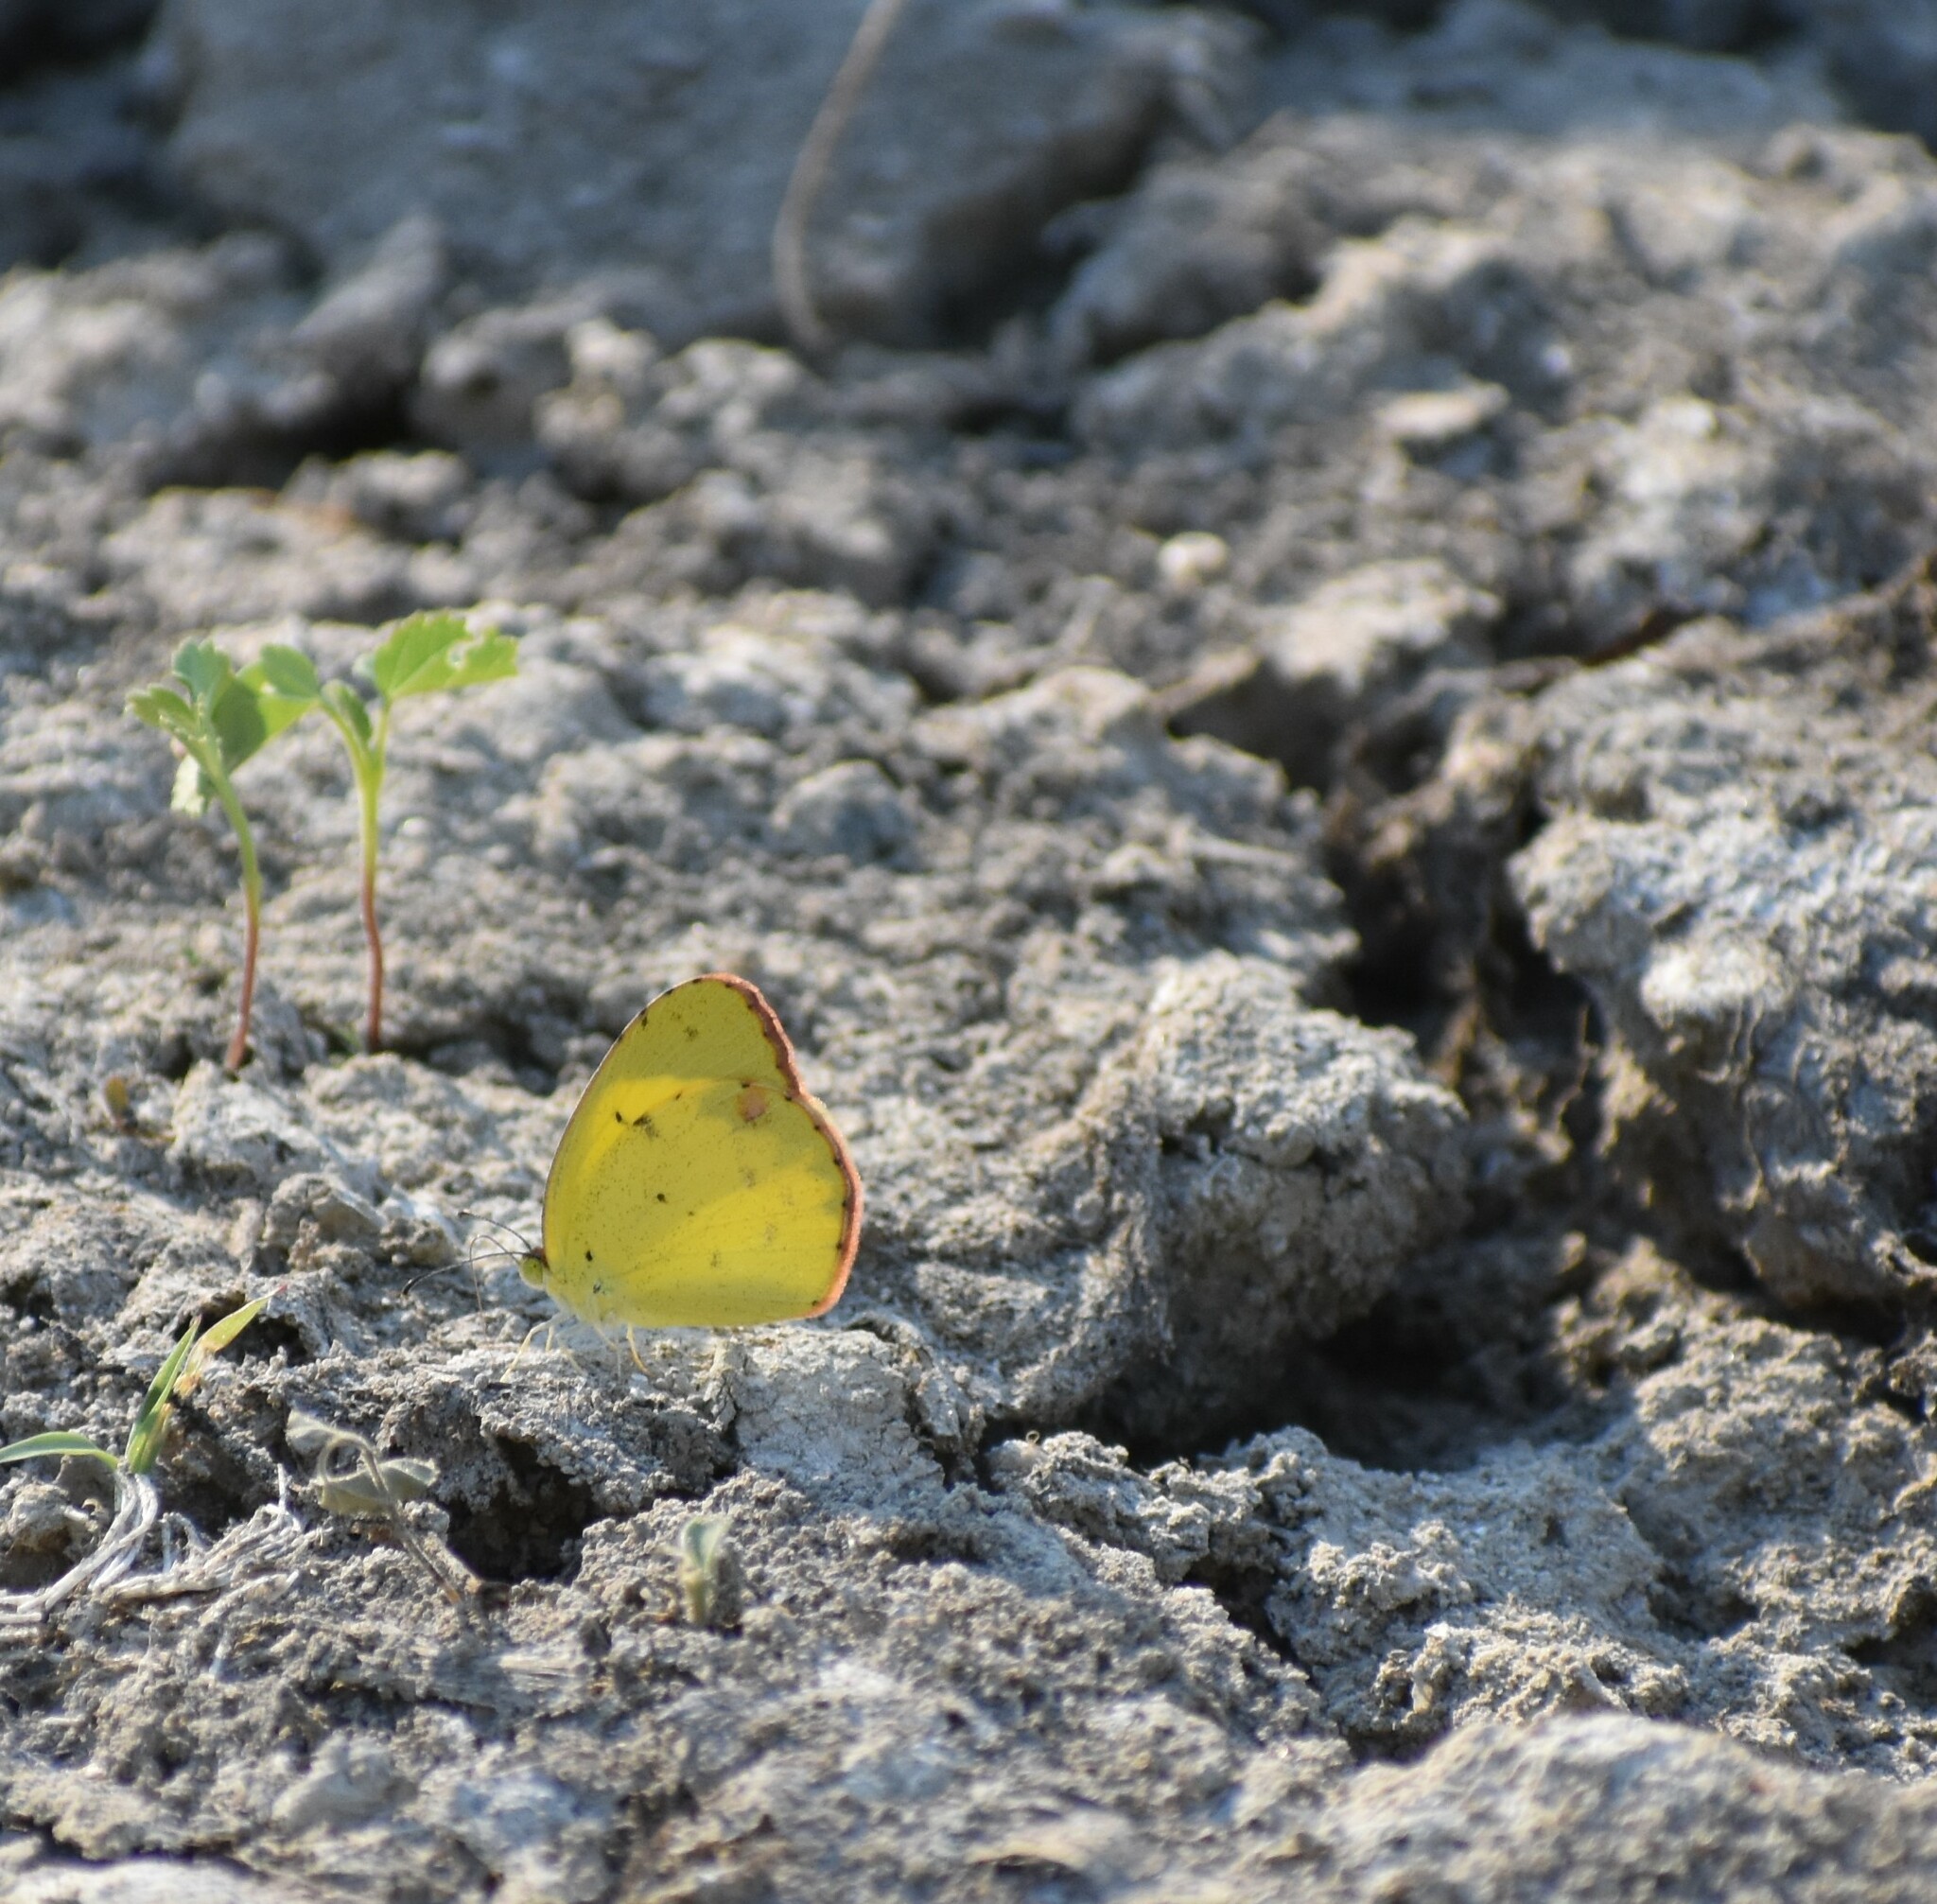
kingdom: Animalia
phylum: Arthropoda
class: Insecta
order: Lepidoptera
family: Pieridae
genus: Pyrisitia
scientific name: Pyrisitia lisa
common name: Little yellow
